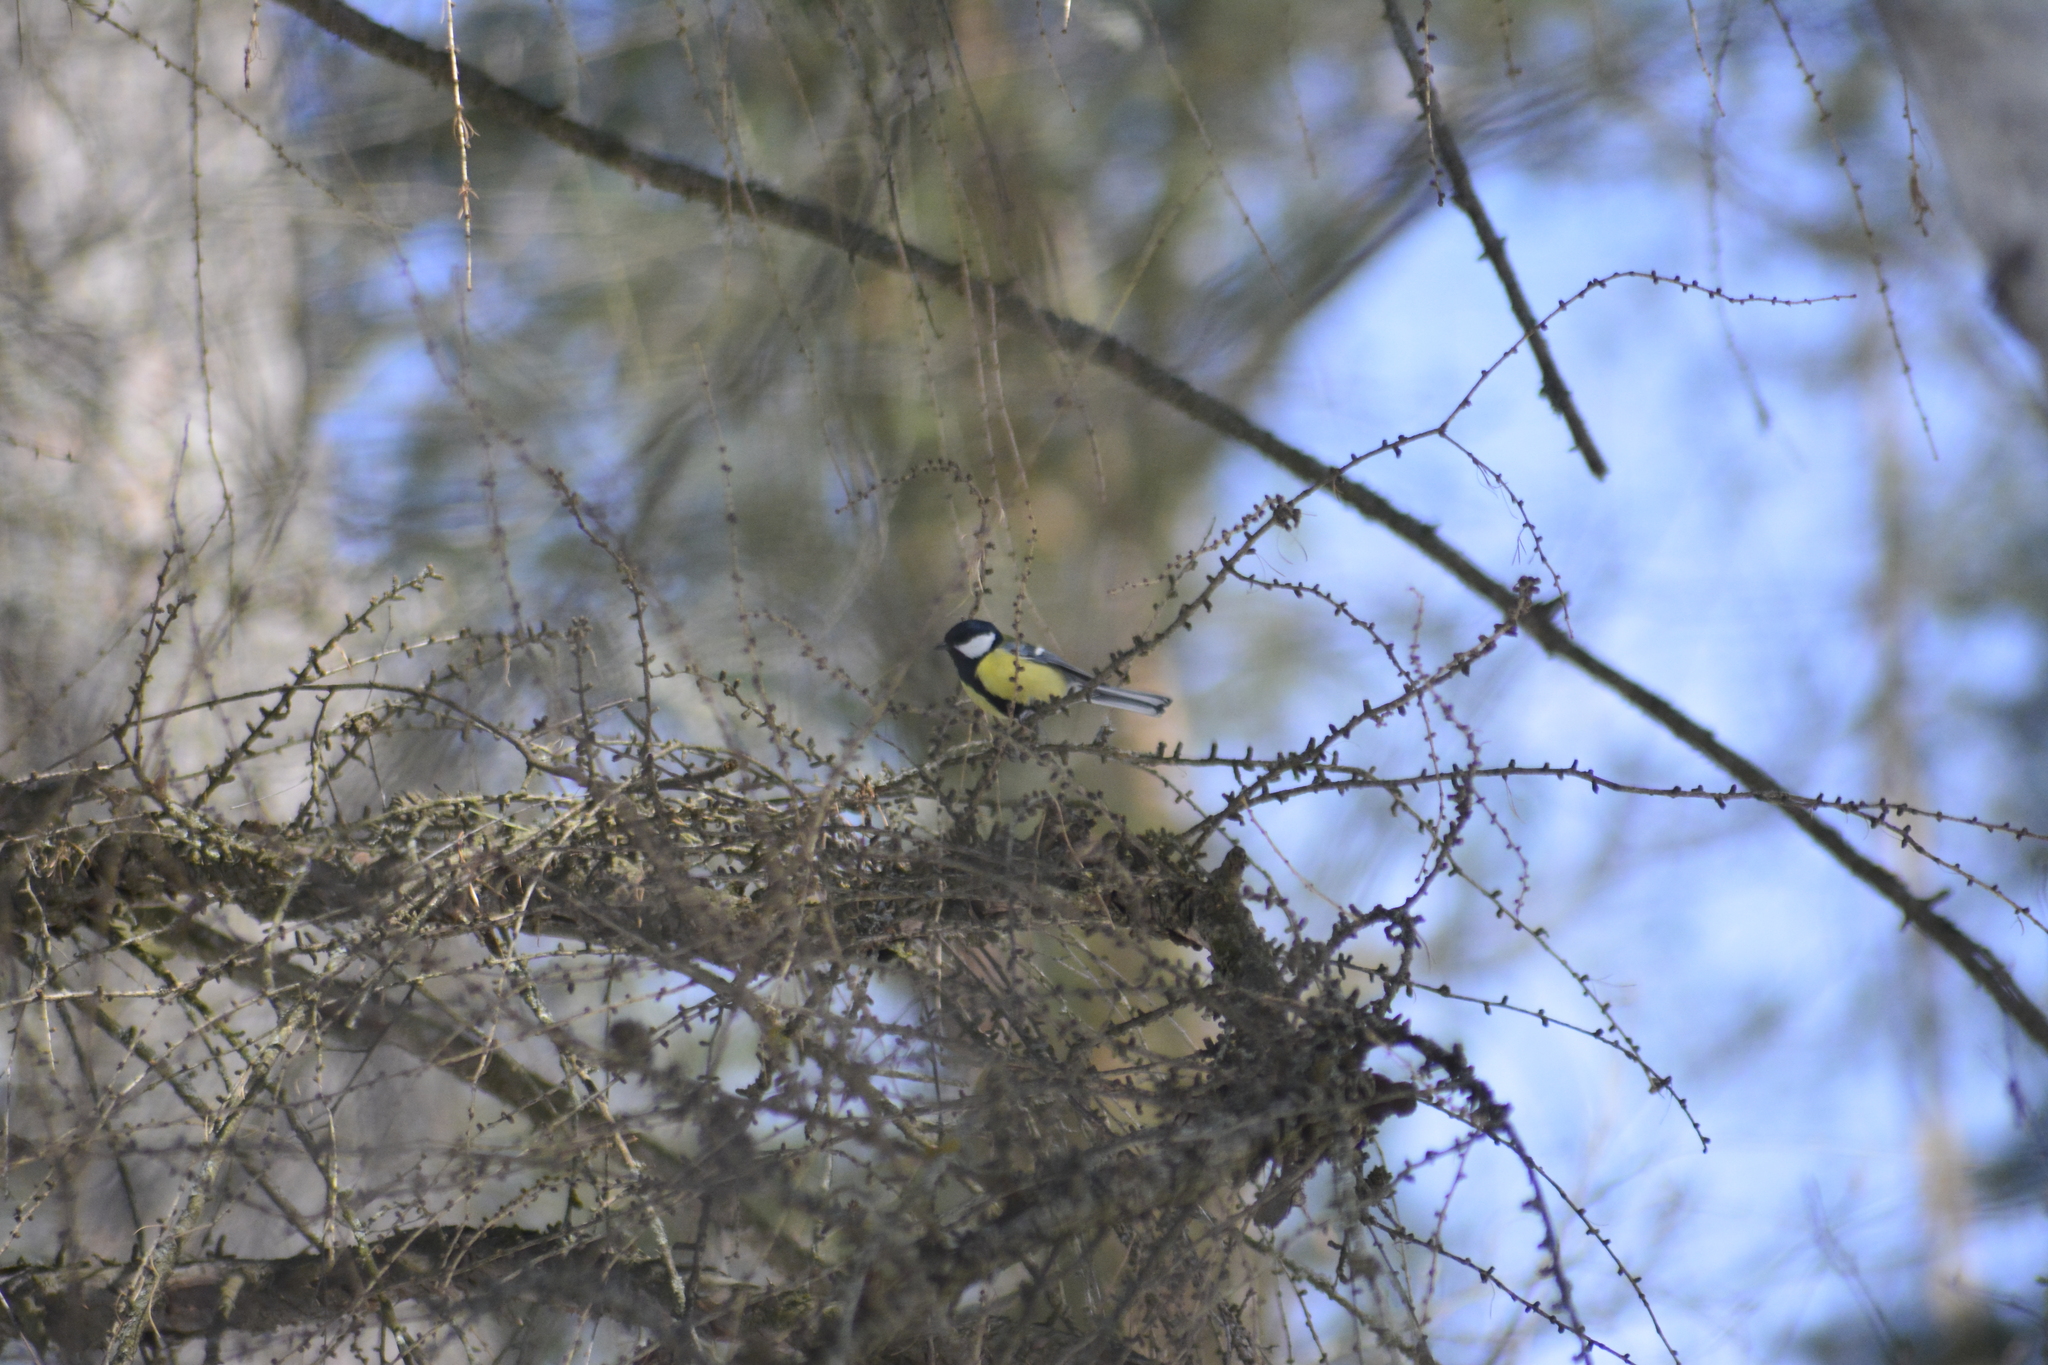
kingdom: Animalia
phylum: Chordata
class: Aves
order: Passeriformes
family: Paridae
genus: Parus
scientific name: Parus major
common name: Great tit
